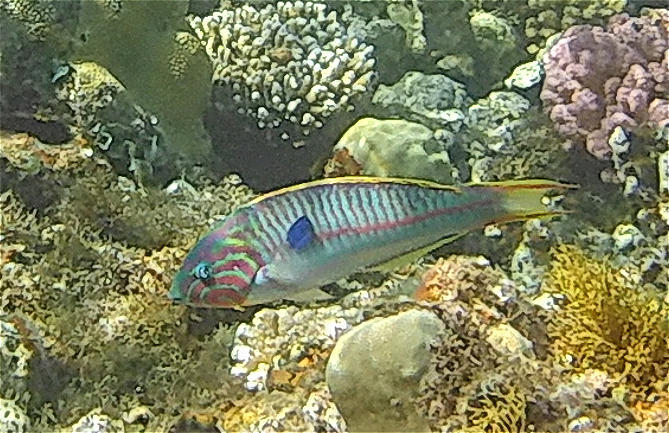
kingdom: Animalia
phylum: Chordata
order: Perciformes
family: Labridae
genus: Thalassoma
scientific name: Thalassoma rueppellii
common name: Klunzinger's wrasse
